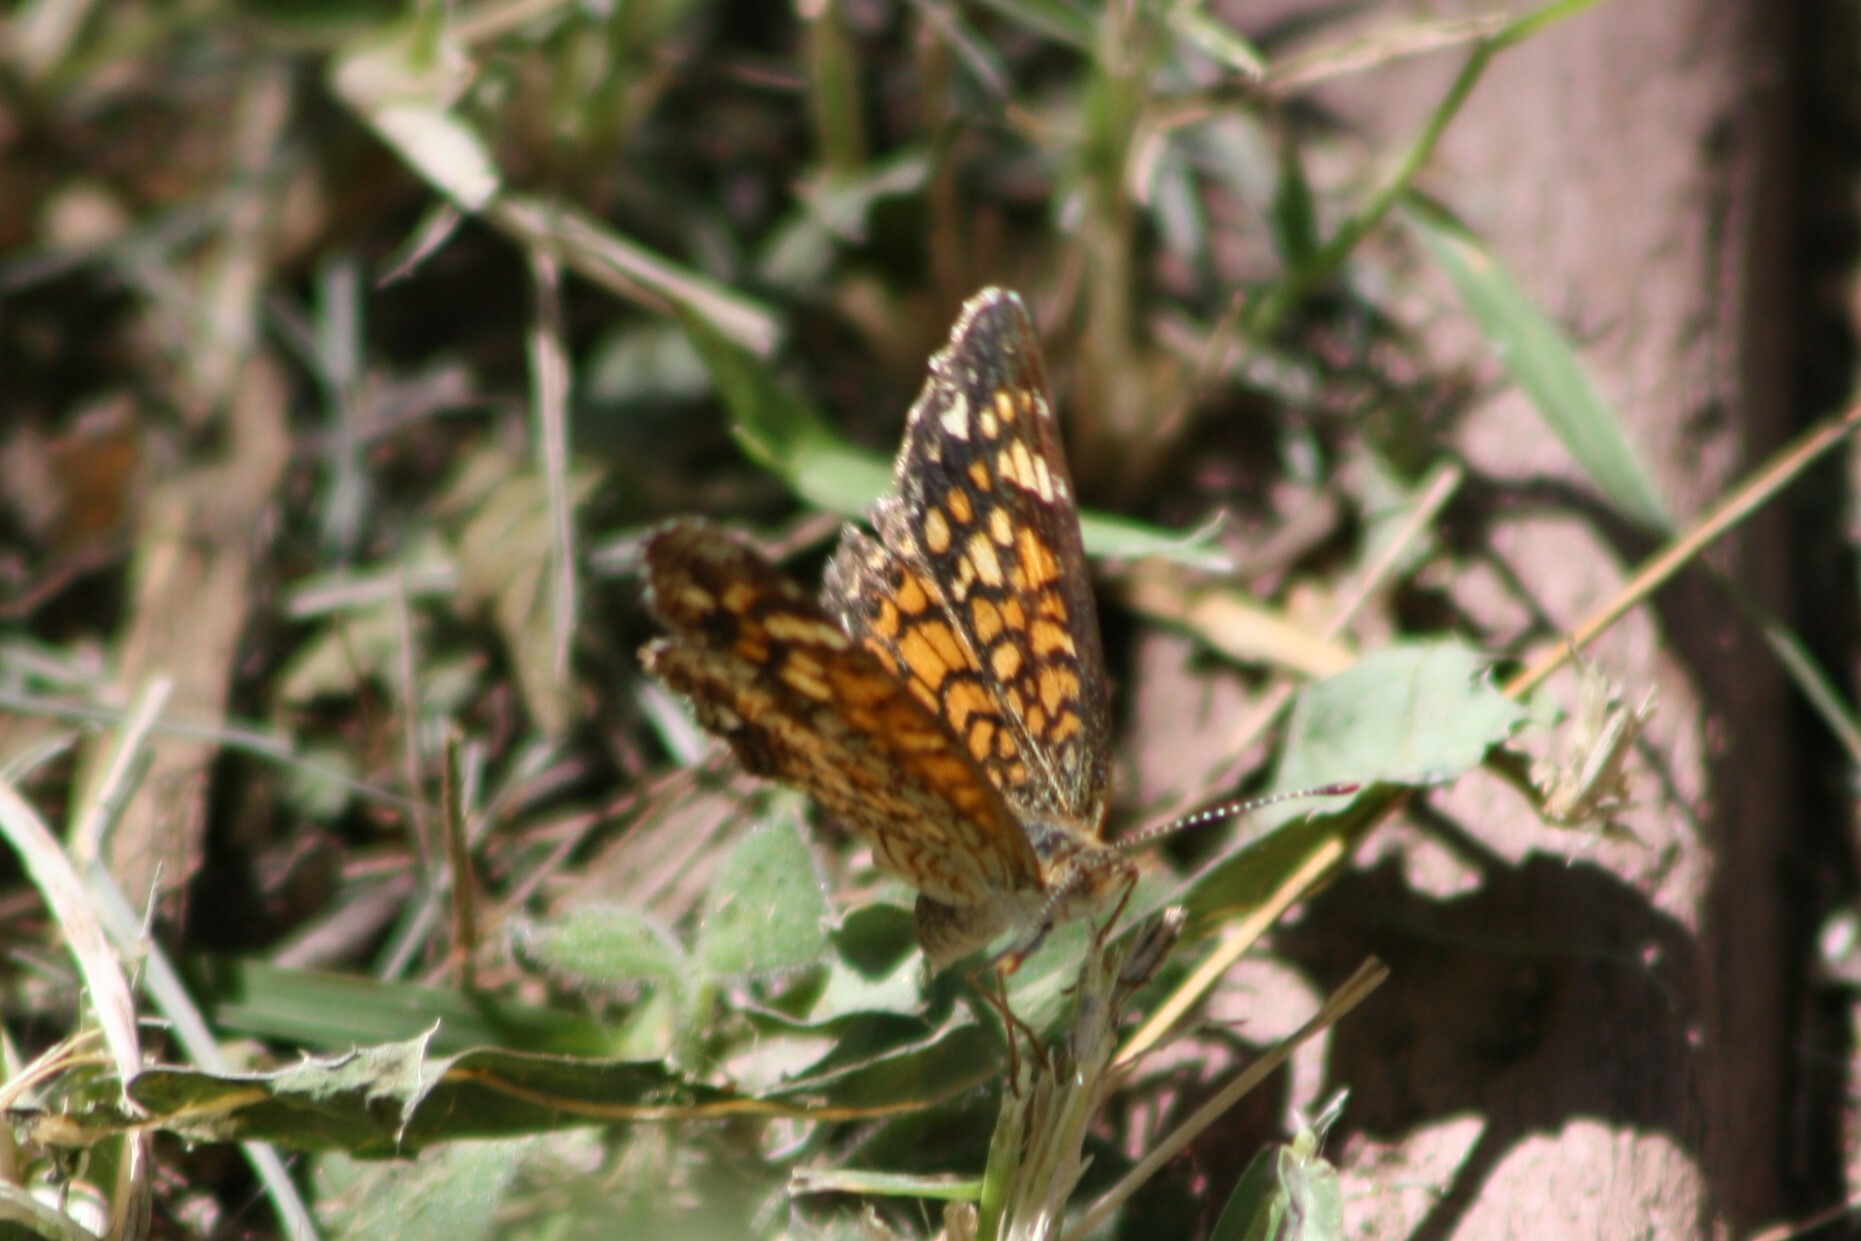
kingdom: Animalia
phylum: Arthropoda
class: Insecta
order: Lepidoptera
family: Nymphalidae
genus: Phyciodes
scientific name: Phyciodes vesta
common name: Vesta crescent
